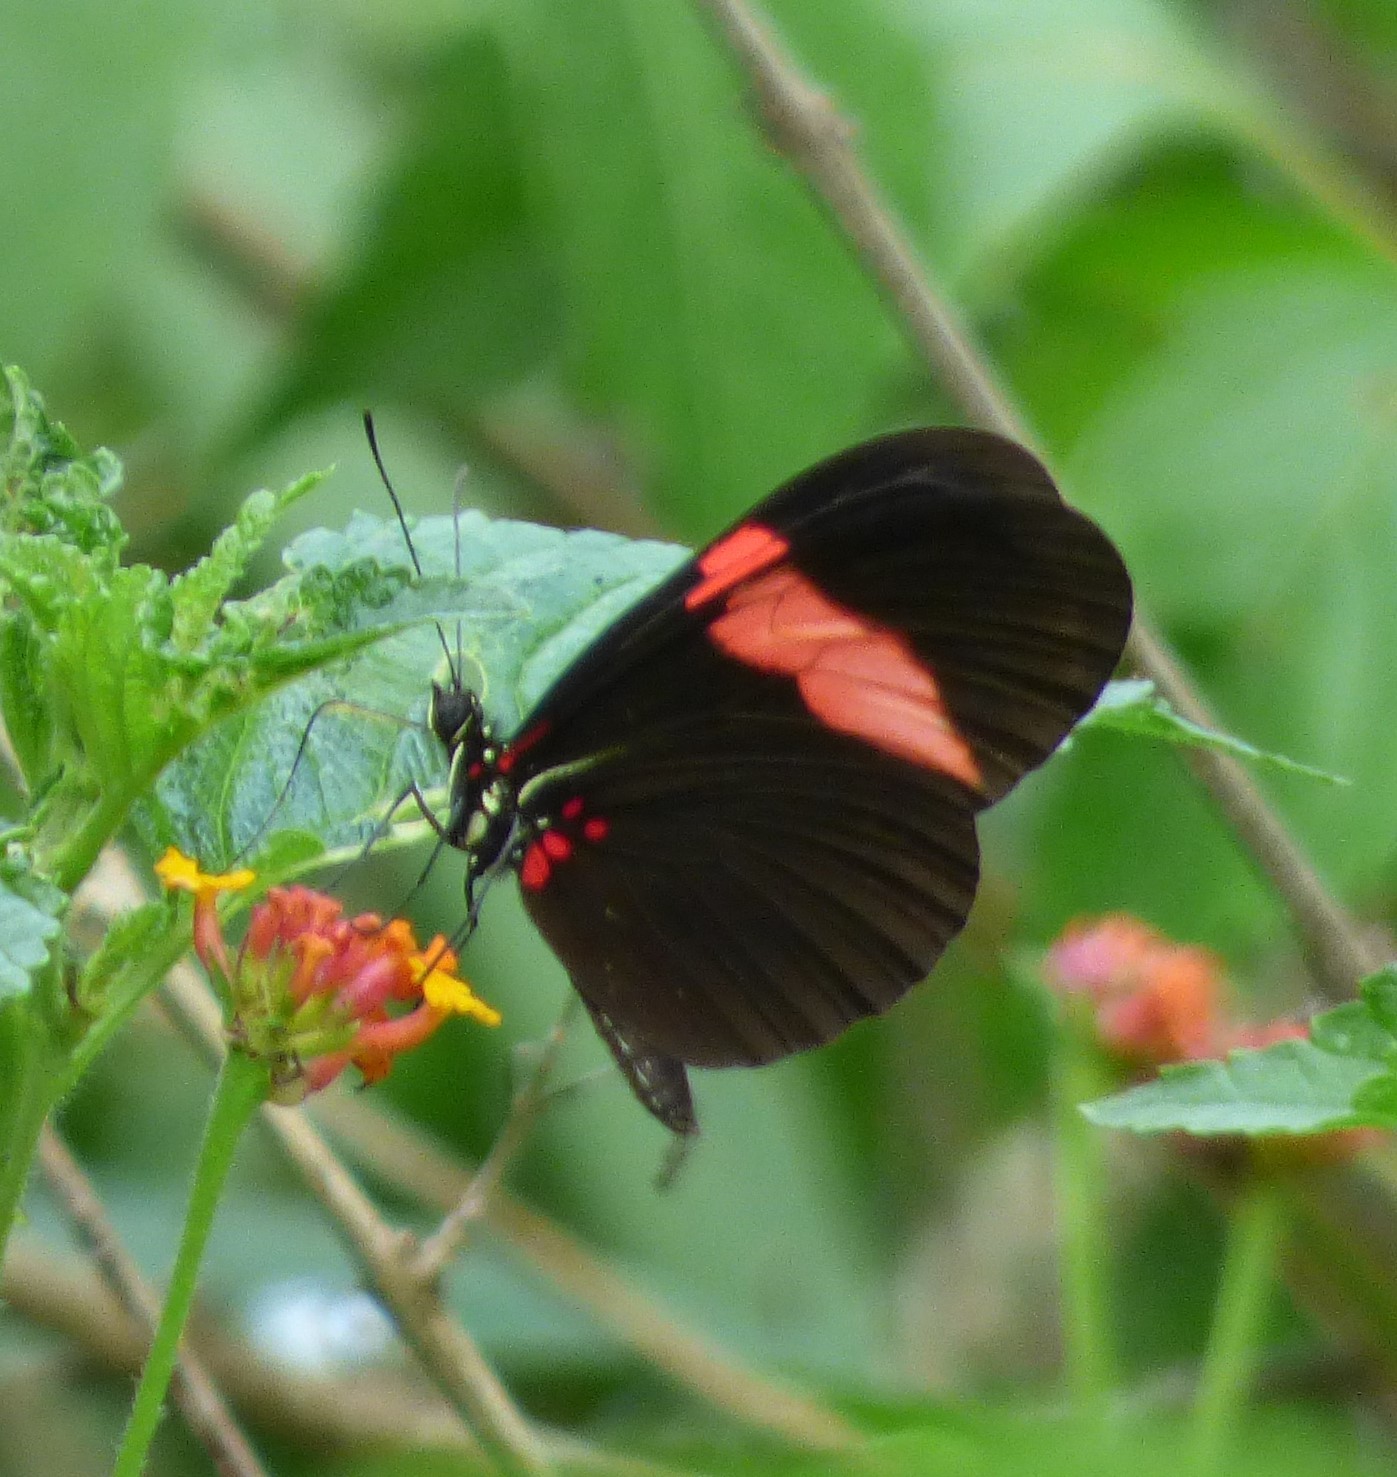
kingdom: Animalia
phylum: Arthropoda
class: Insecta
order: Lepidoptera
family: Nymphalidae
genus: Heliconius
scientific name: Heliconius erato
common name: Common patch longwing
